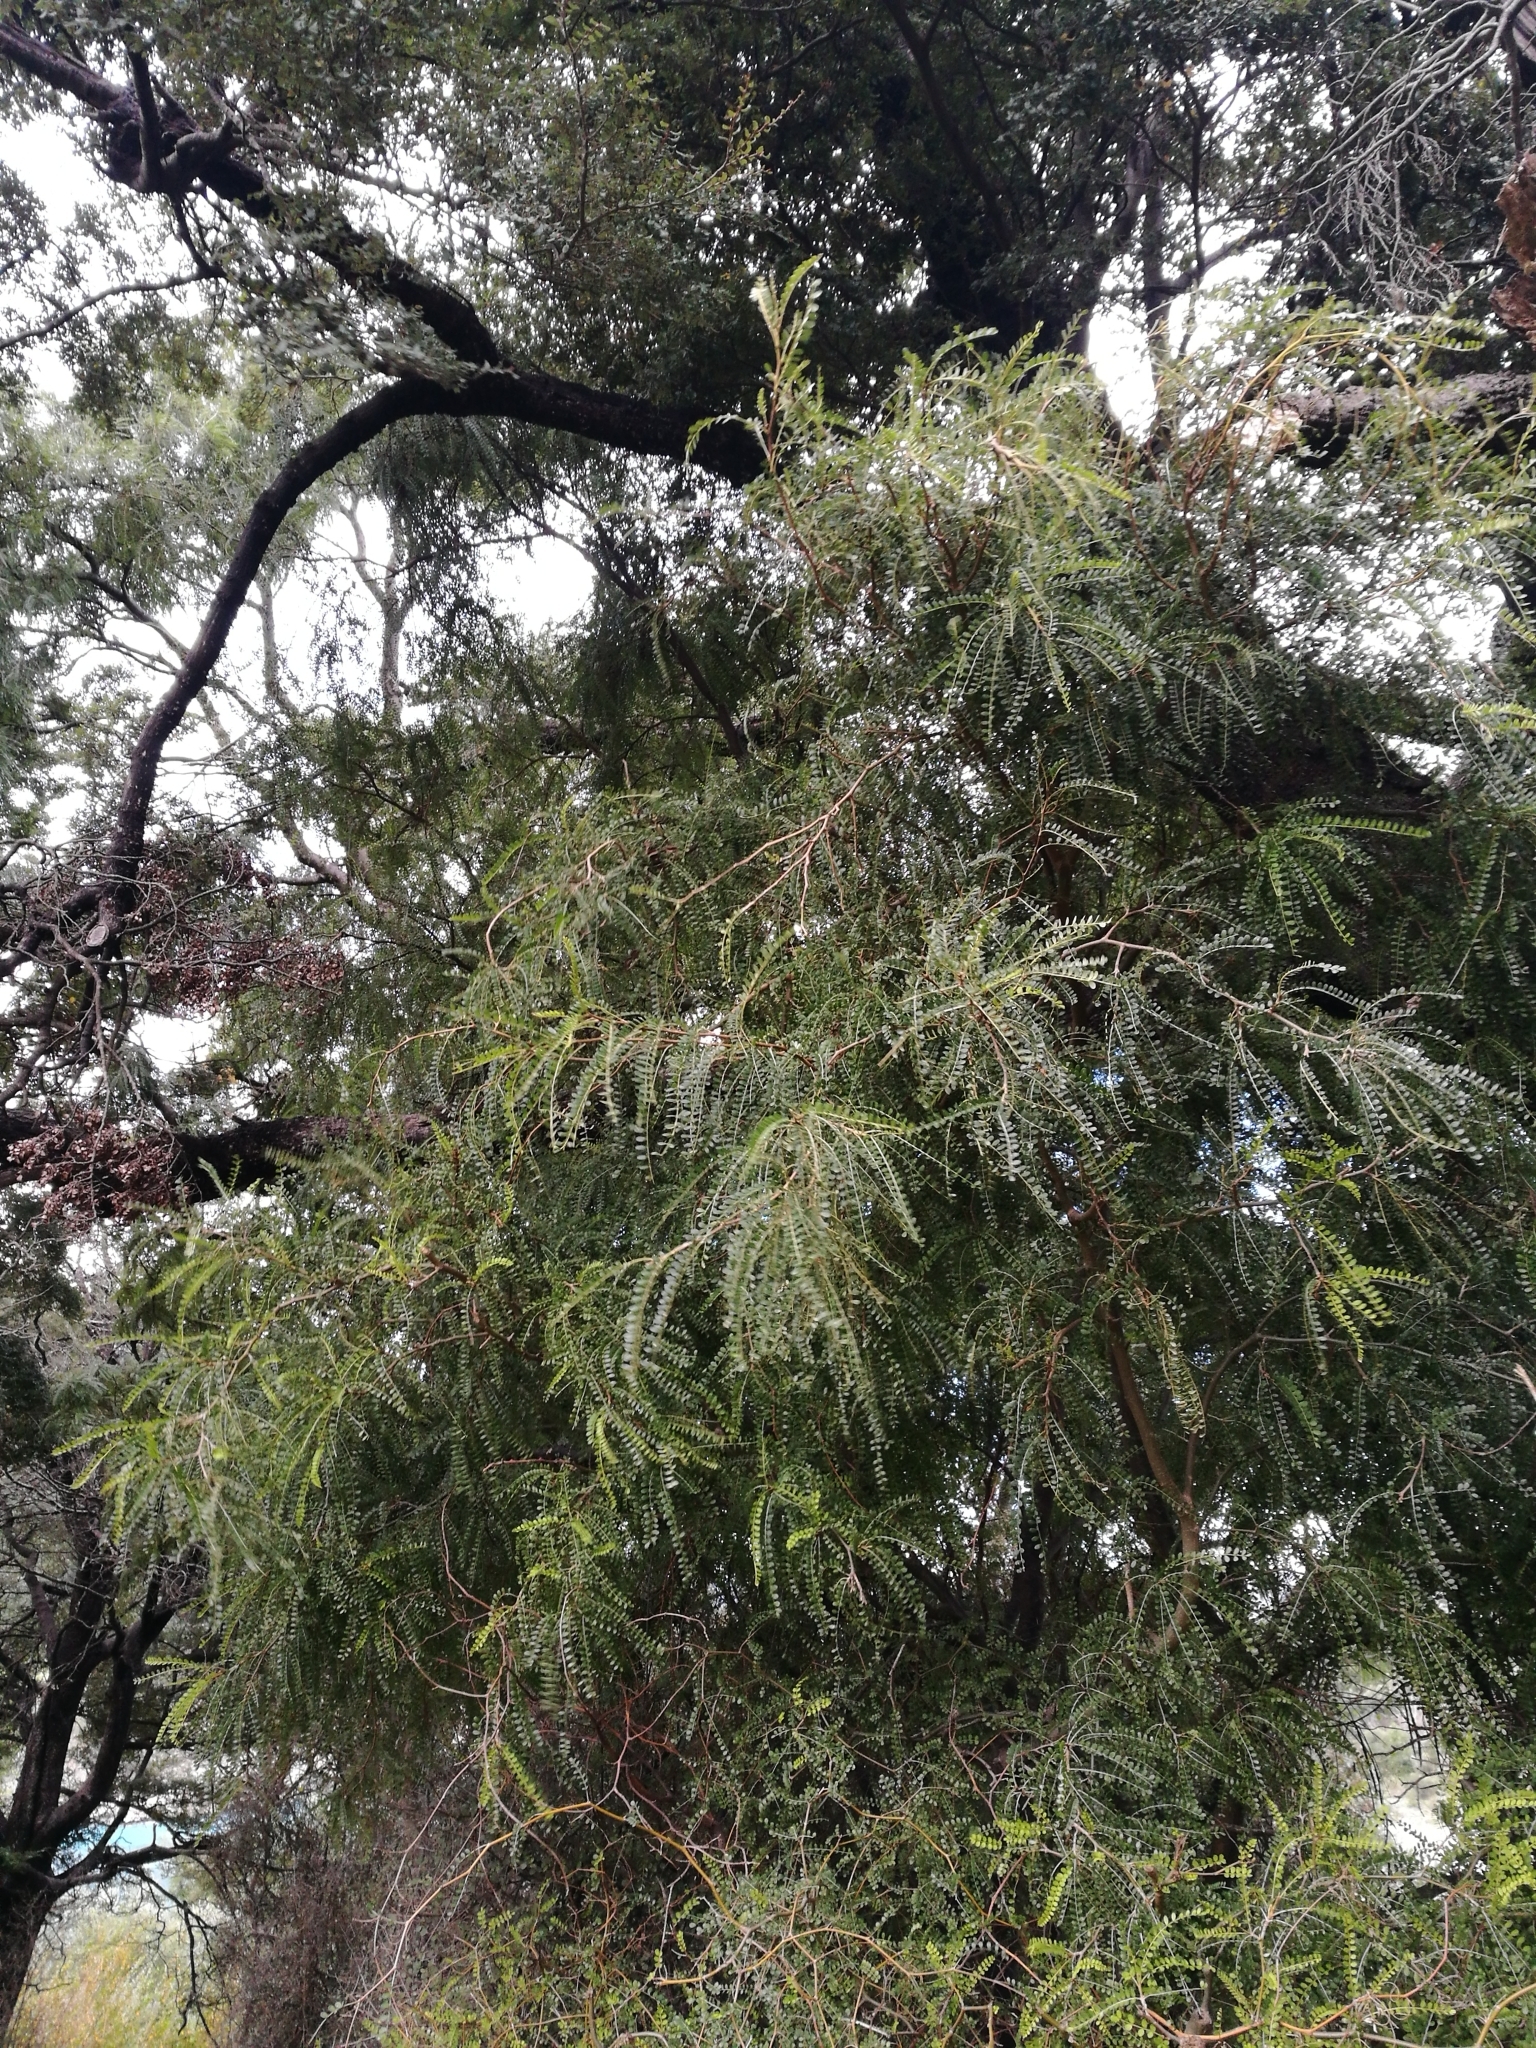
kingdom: Plantae
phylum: Tracheophyta
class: Magnoliopsida
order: Fabales
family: Fabaceae
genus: Sophora
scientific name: Sophora microphylla
